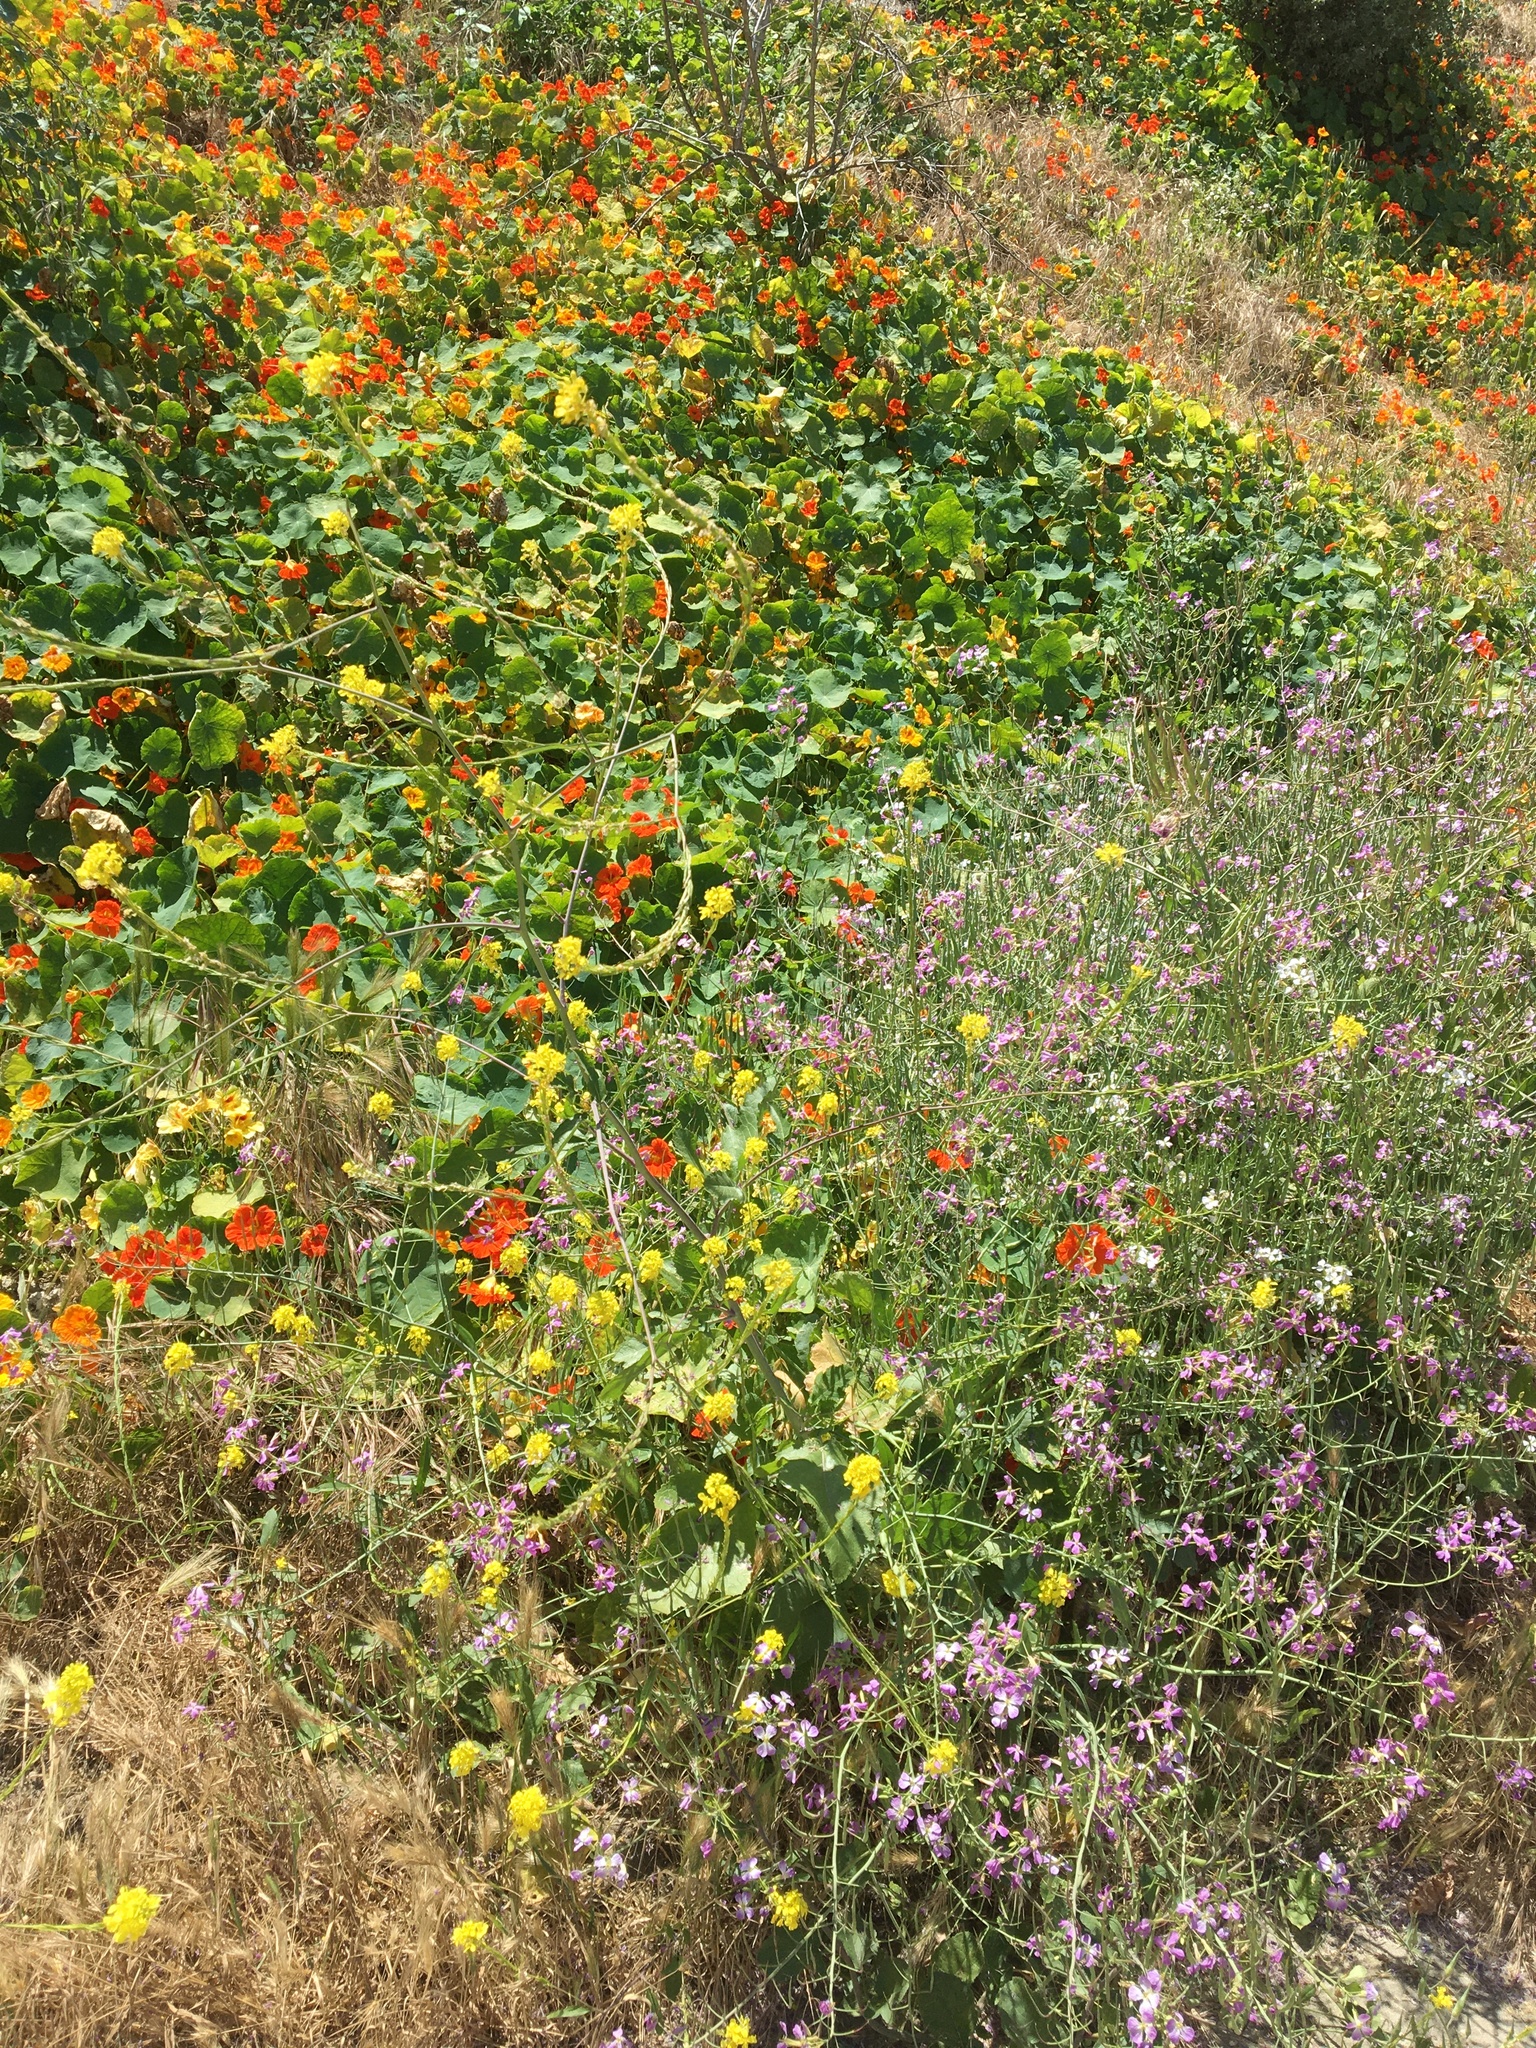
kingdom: Plantae
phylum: Tracheophyta
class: Magnoliopsida
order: Brassicales
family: Brassicaceae
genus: Hirschfeldia
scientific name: Hirschfeldia incana
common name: Hoary mustard
